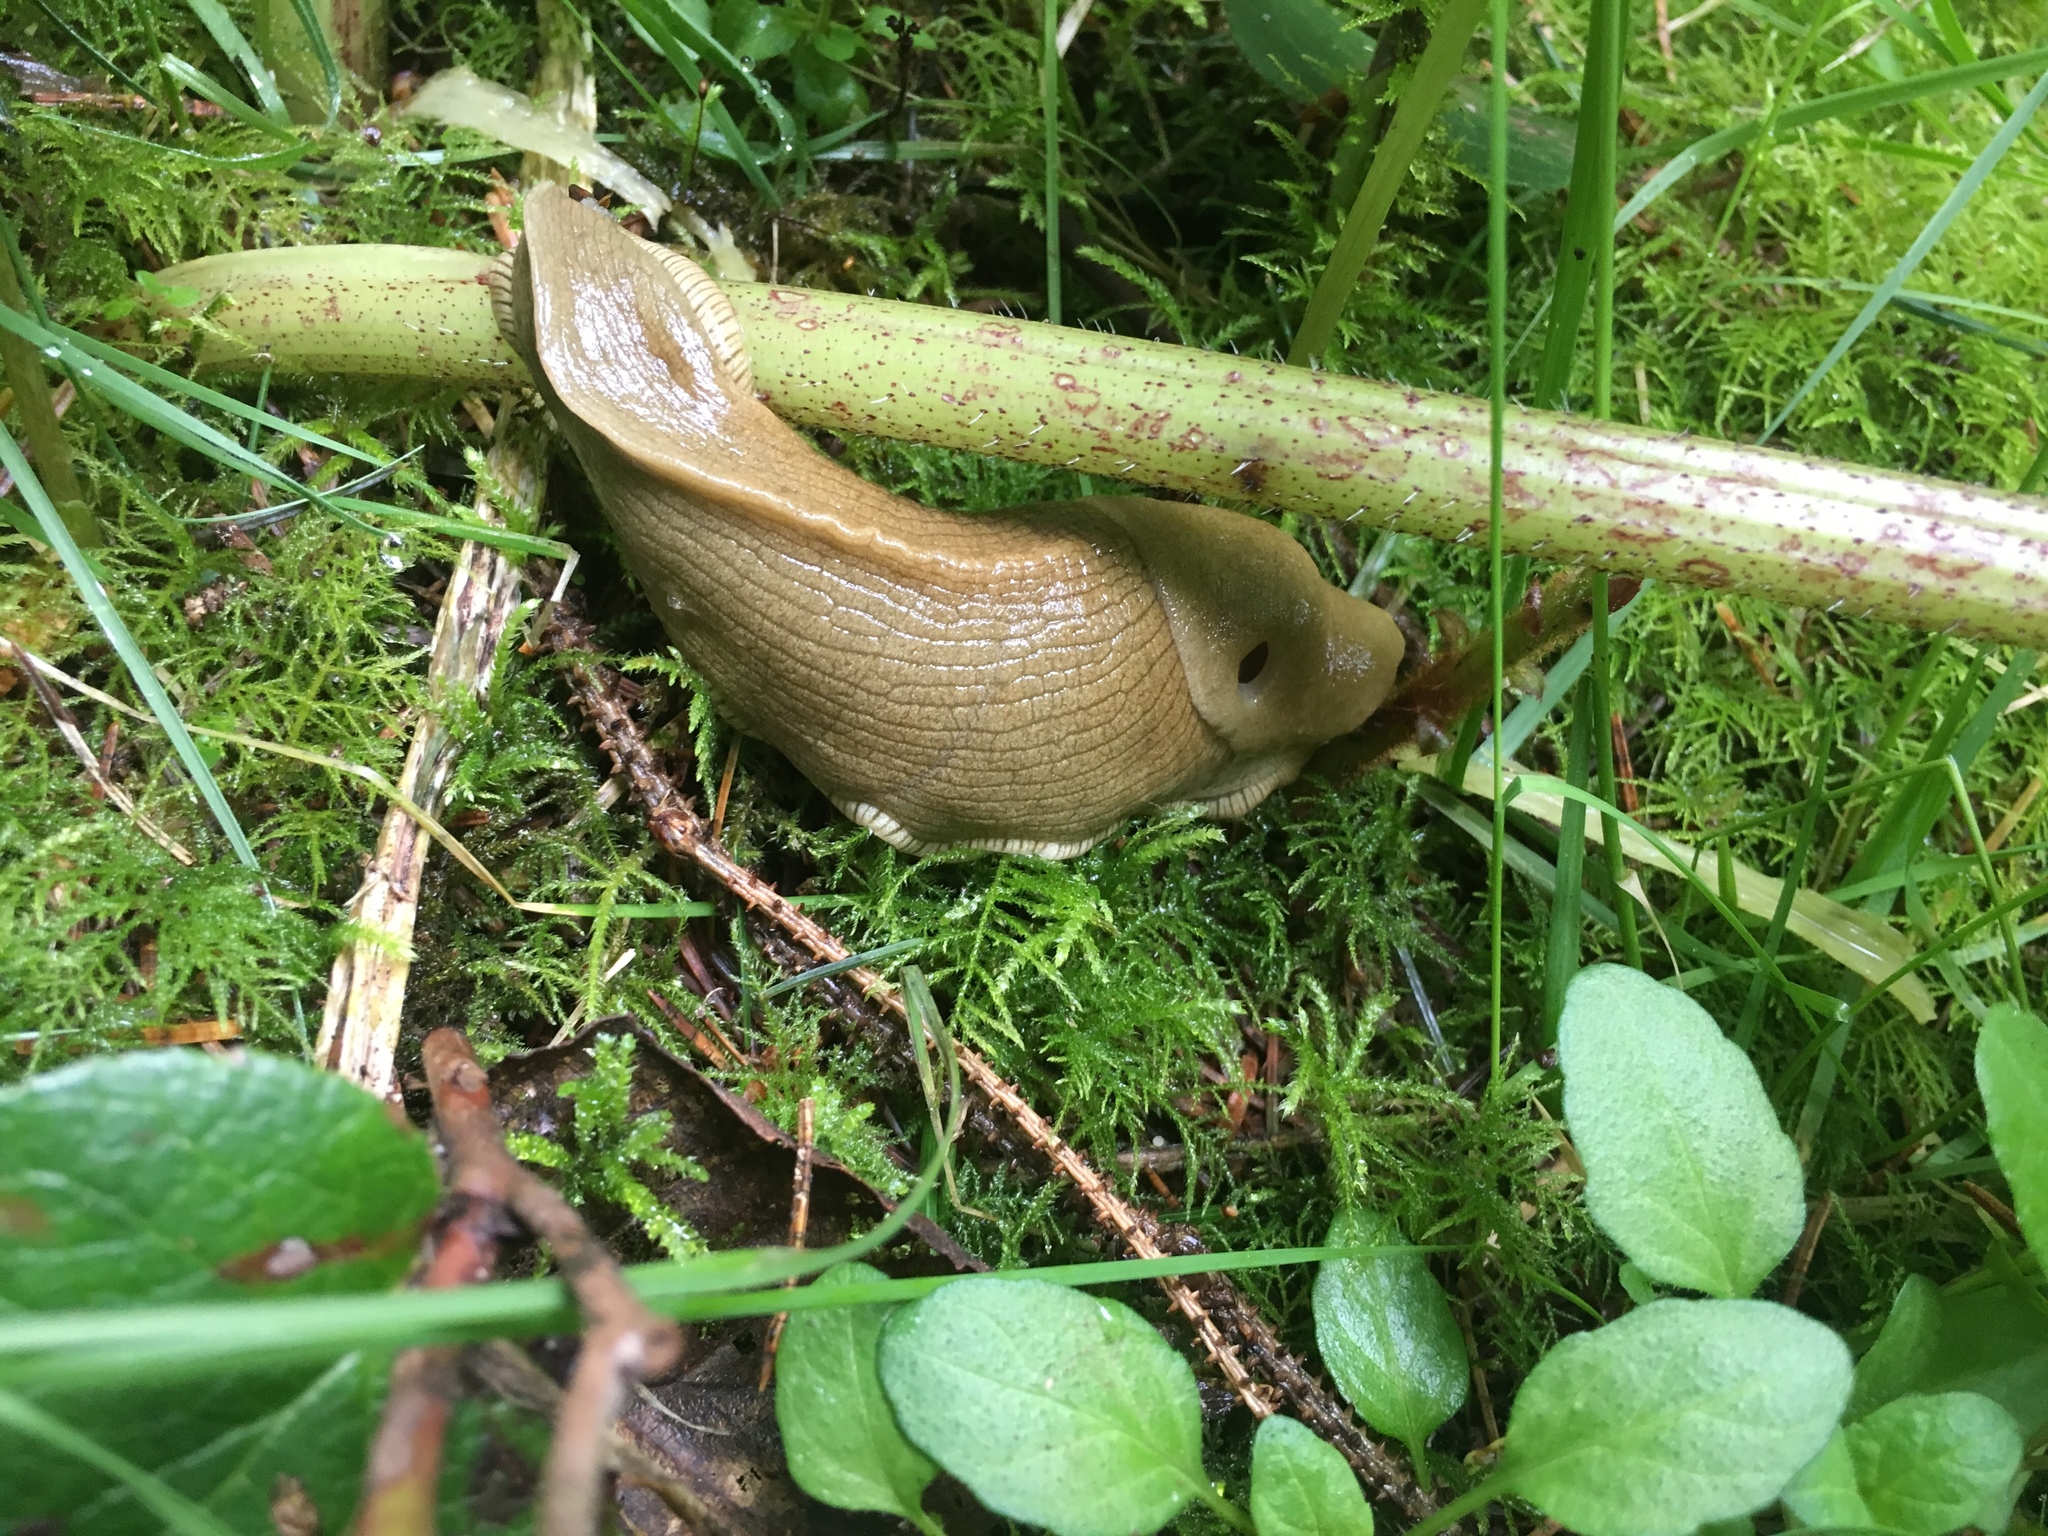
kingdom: Animalia
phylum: Mollusca
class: Gastropoda
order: Stylommatophora
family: Ariolimacidae
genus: Ariolimax
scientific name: Ariolimax columbianus
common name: Pacific banana slug
